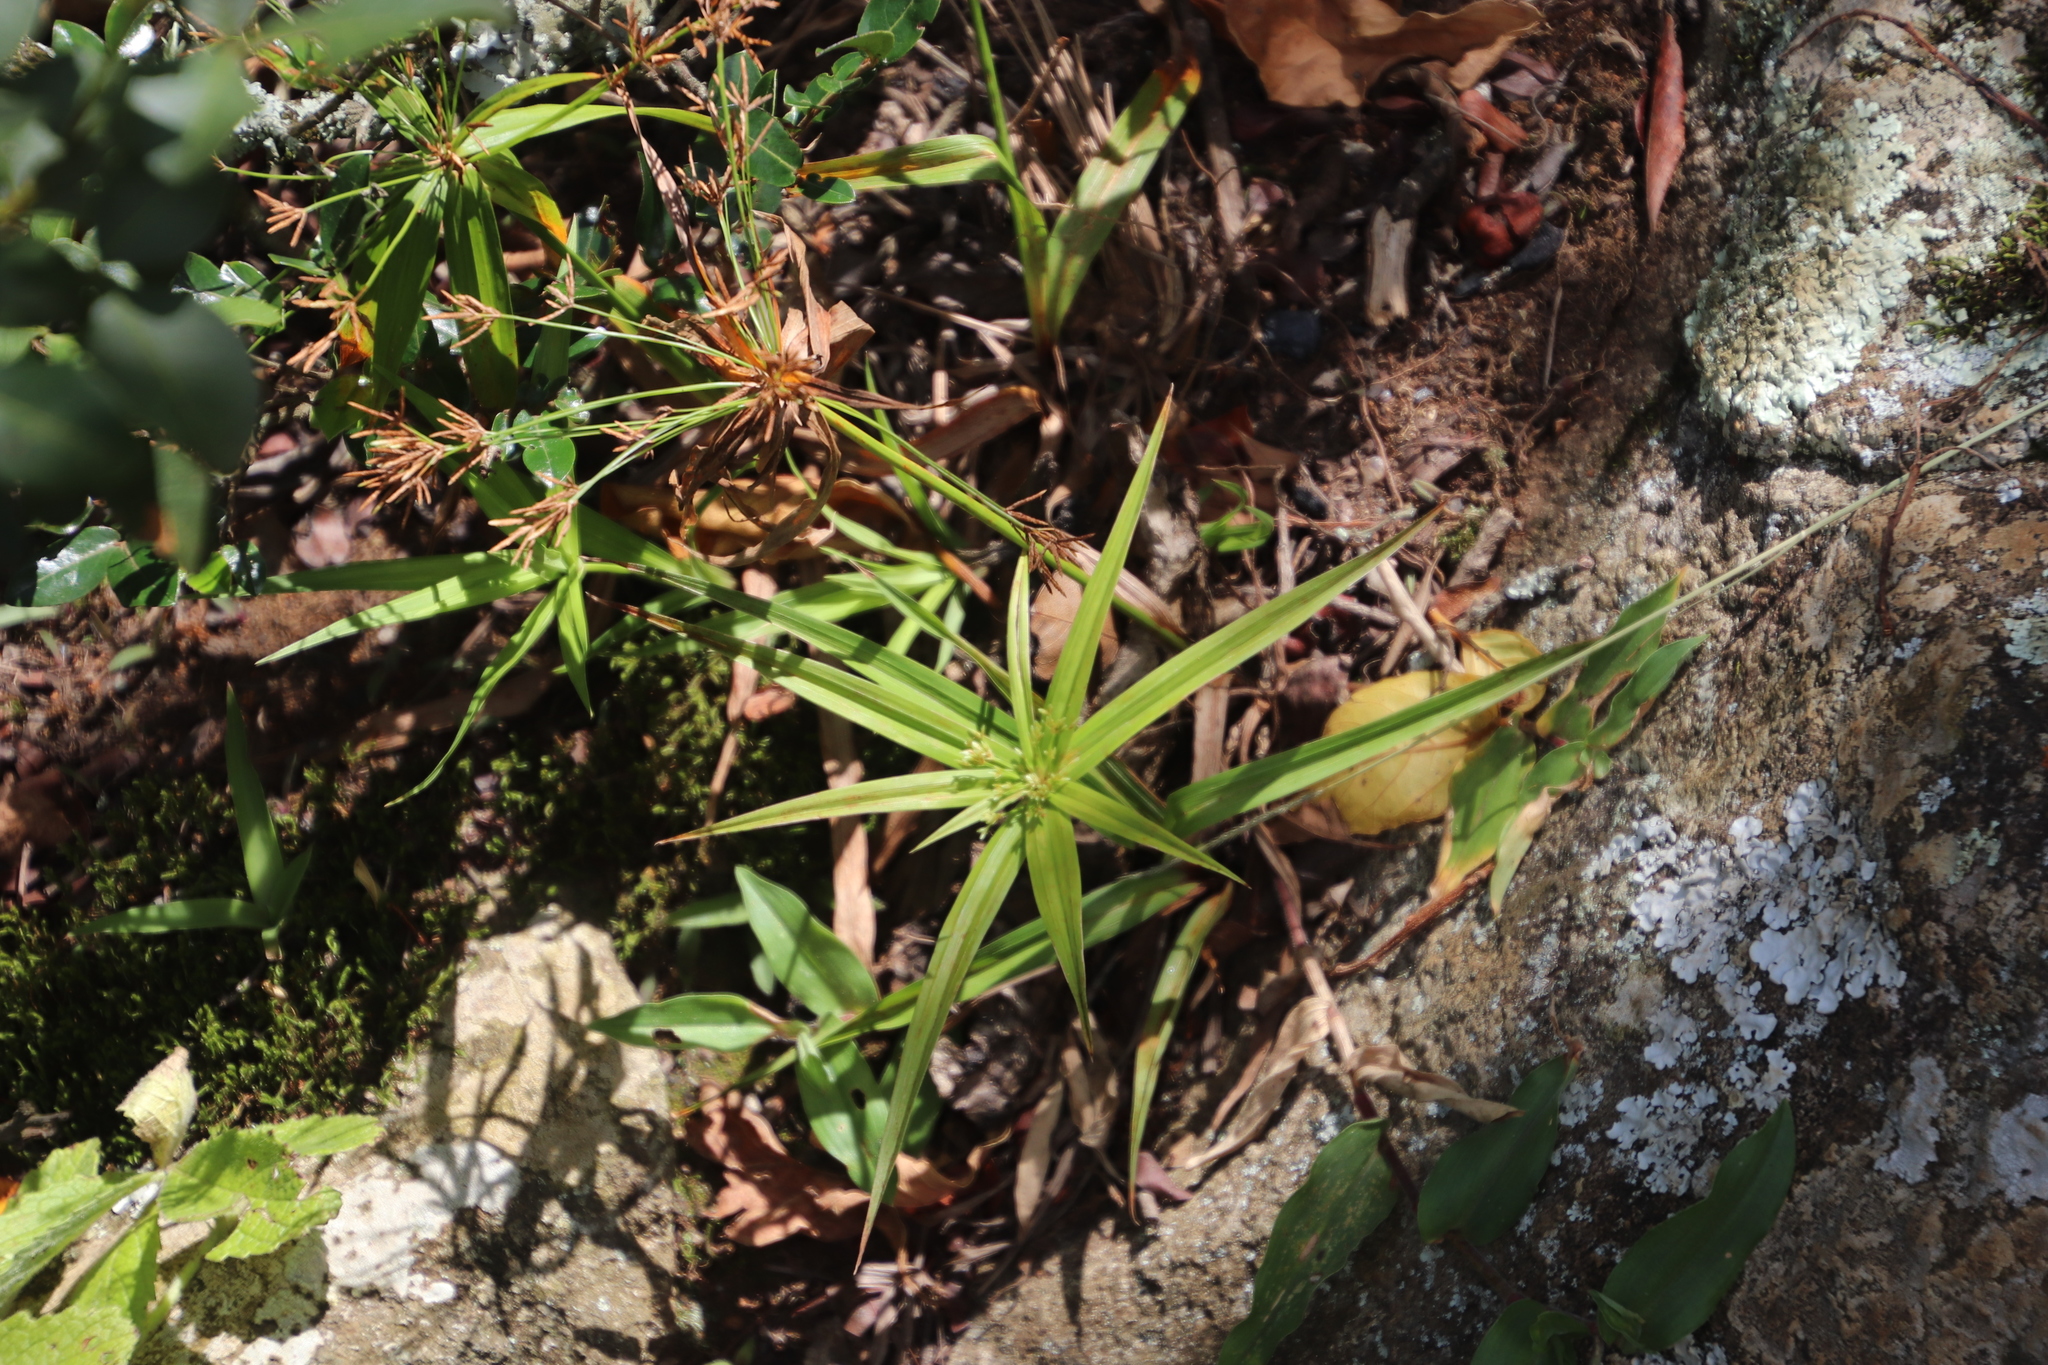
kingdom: Plantae
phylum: Tracheophyta
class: Liliopsida
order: Poales
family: Cyperaceae
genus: Cyperus
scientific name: Cyperus albostriatus
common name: Dwarf umbrella-grass
